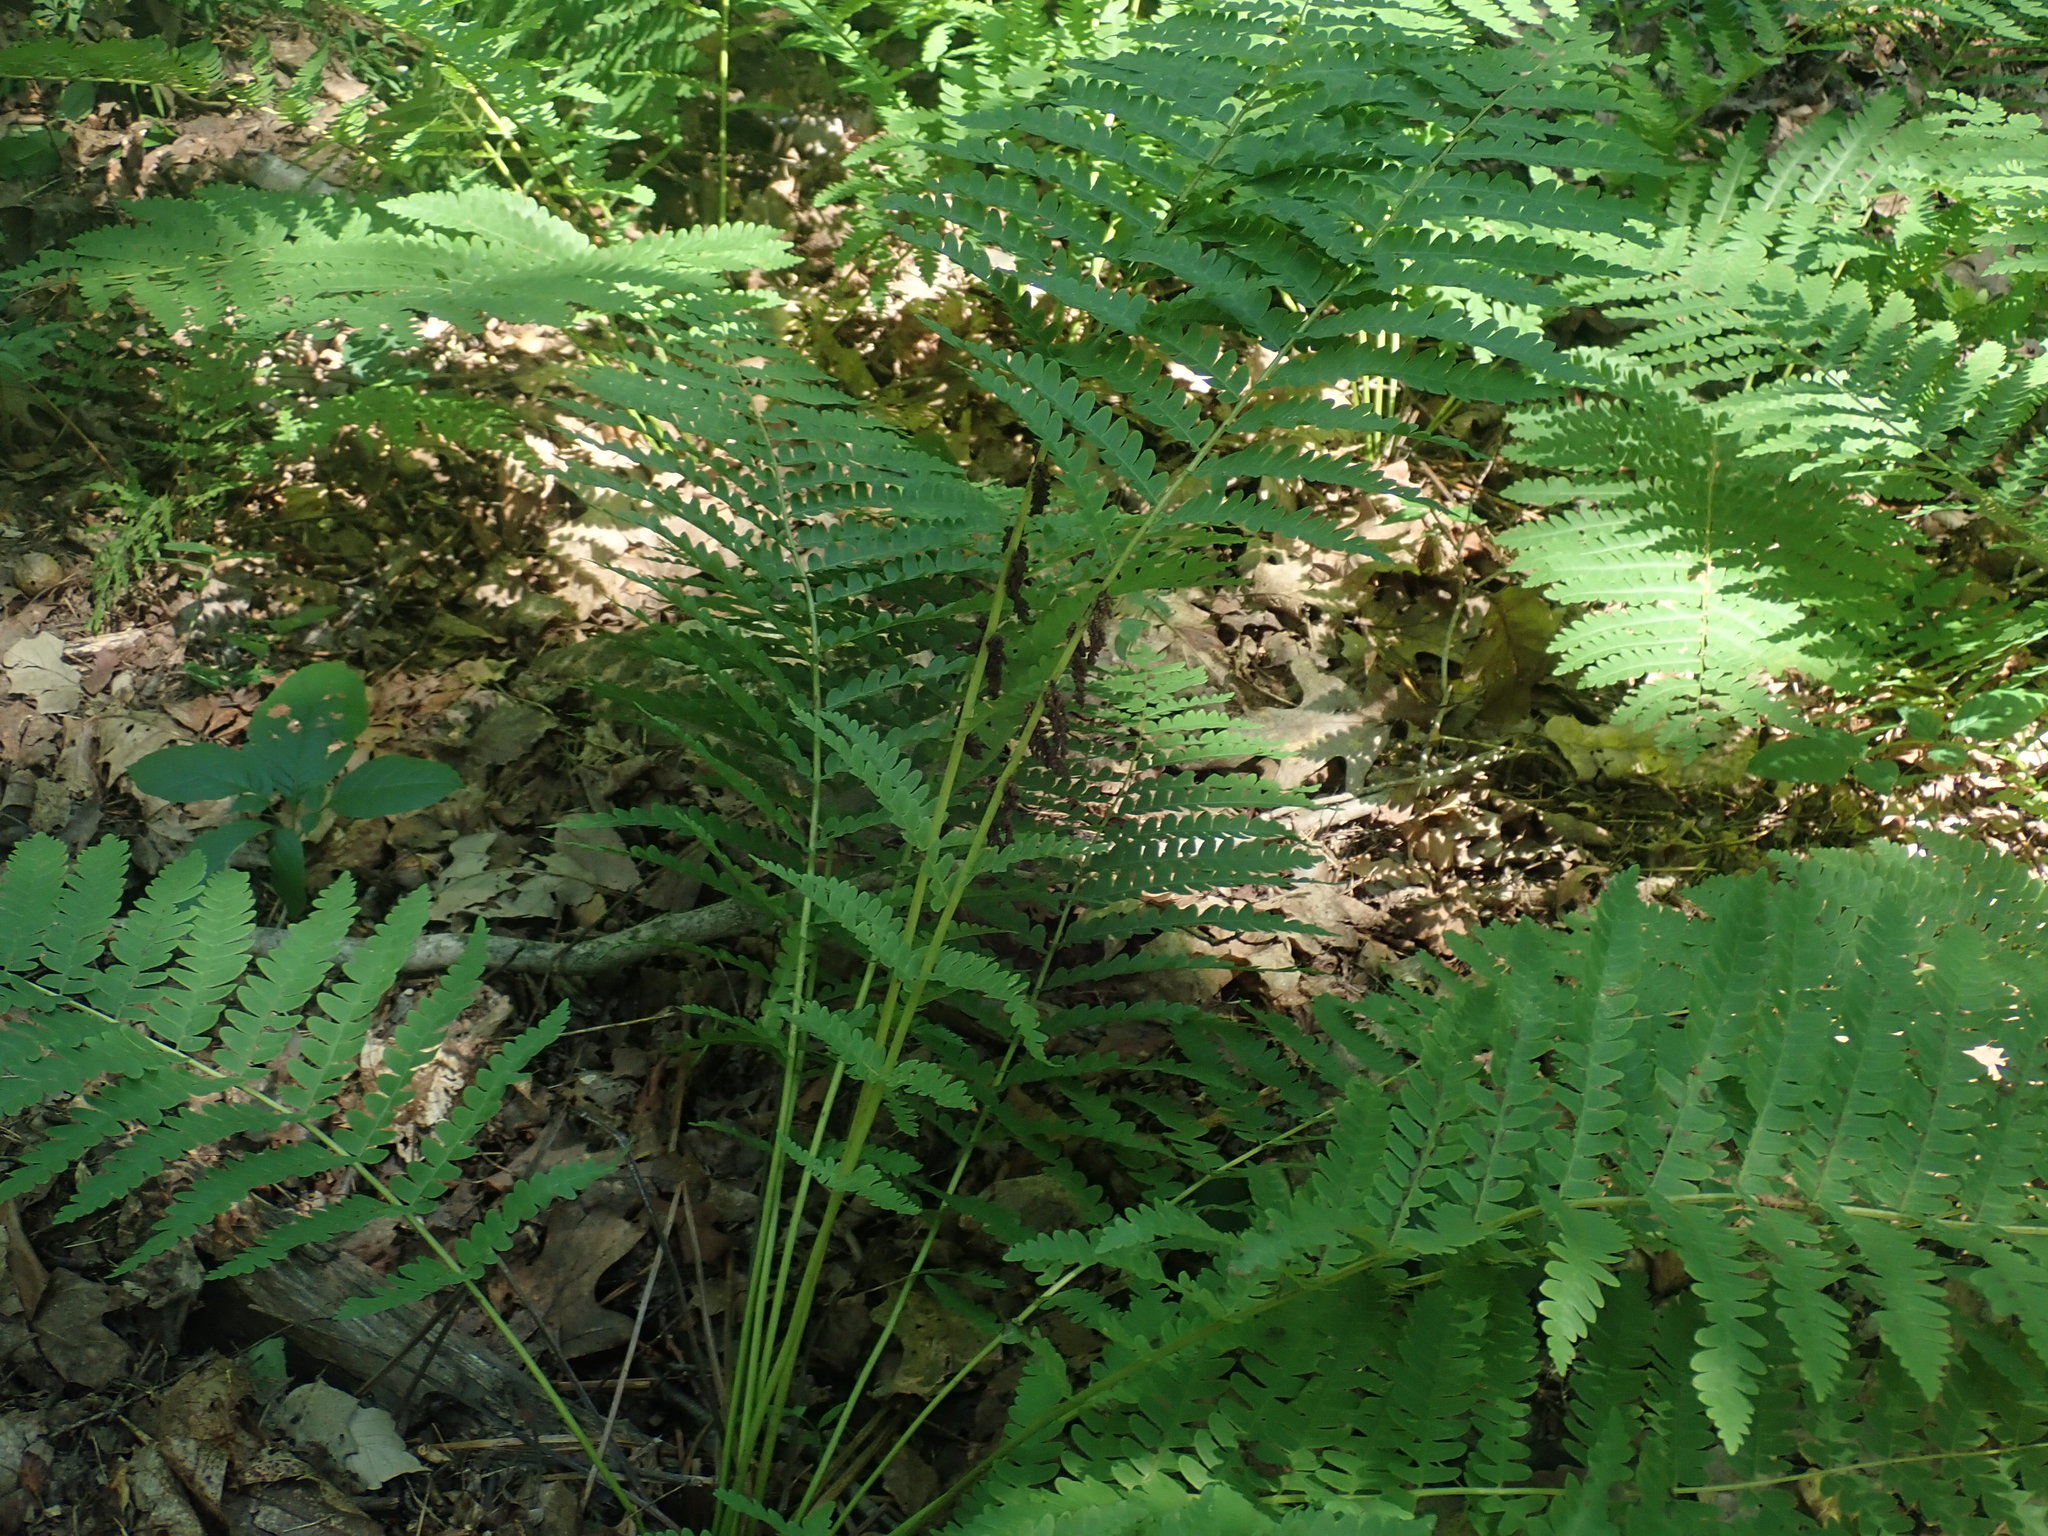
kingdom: Plantae
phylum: Tracheophyta
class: Polypodiopsida
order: Osmundales
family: Osmundaceae
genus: Claytosmunda
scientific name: Claytosmunda claytoniana
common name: Clayton's fern
